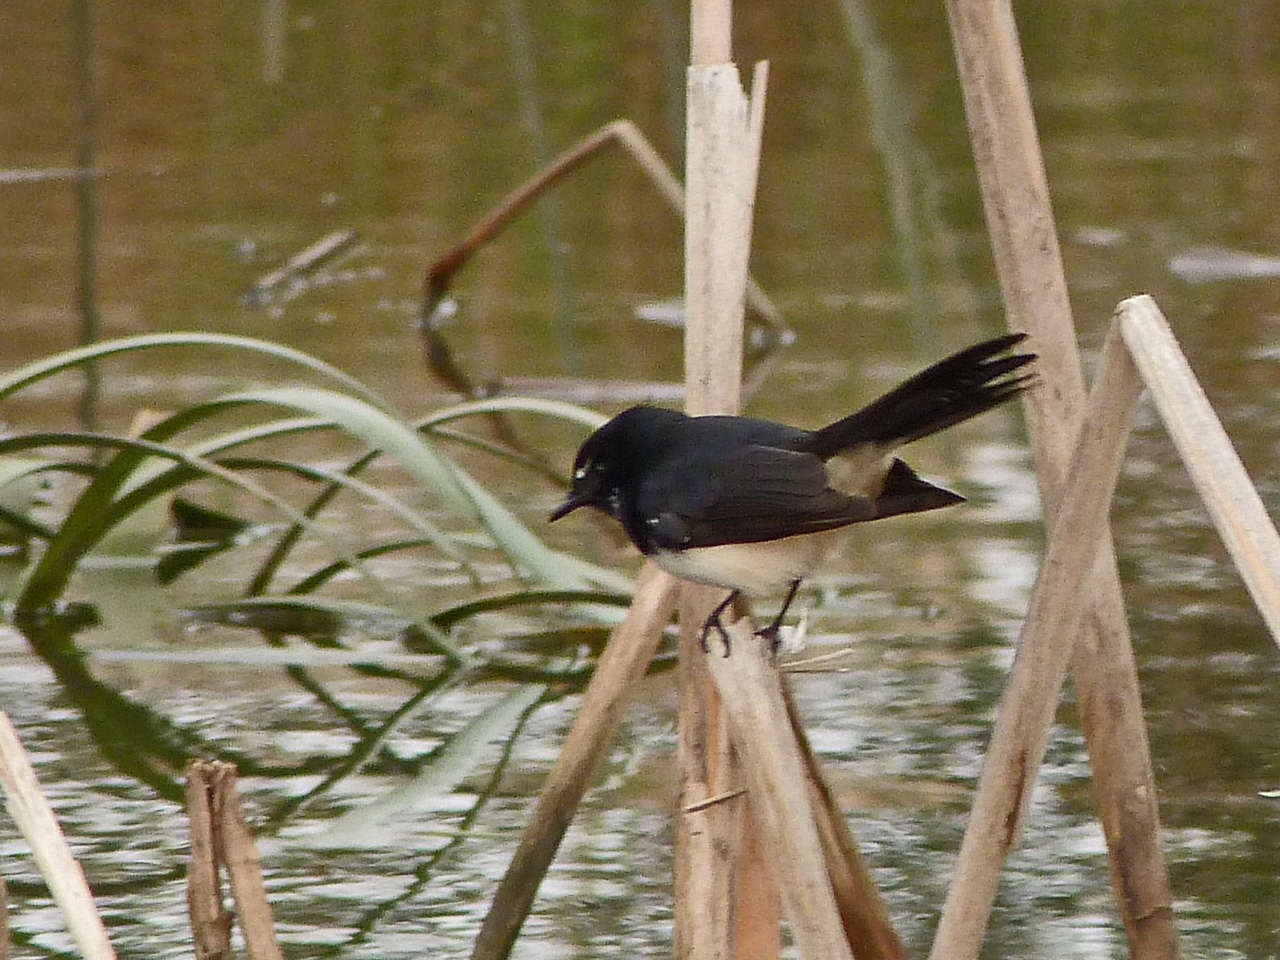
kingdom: Animalia
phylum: Chordata
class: Aves
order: Passeriformes
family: Rhipiduridae
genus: Rhipidura
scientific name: Rhipidura leucophrys
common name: Willie wagtail
